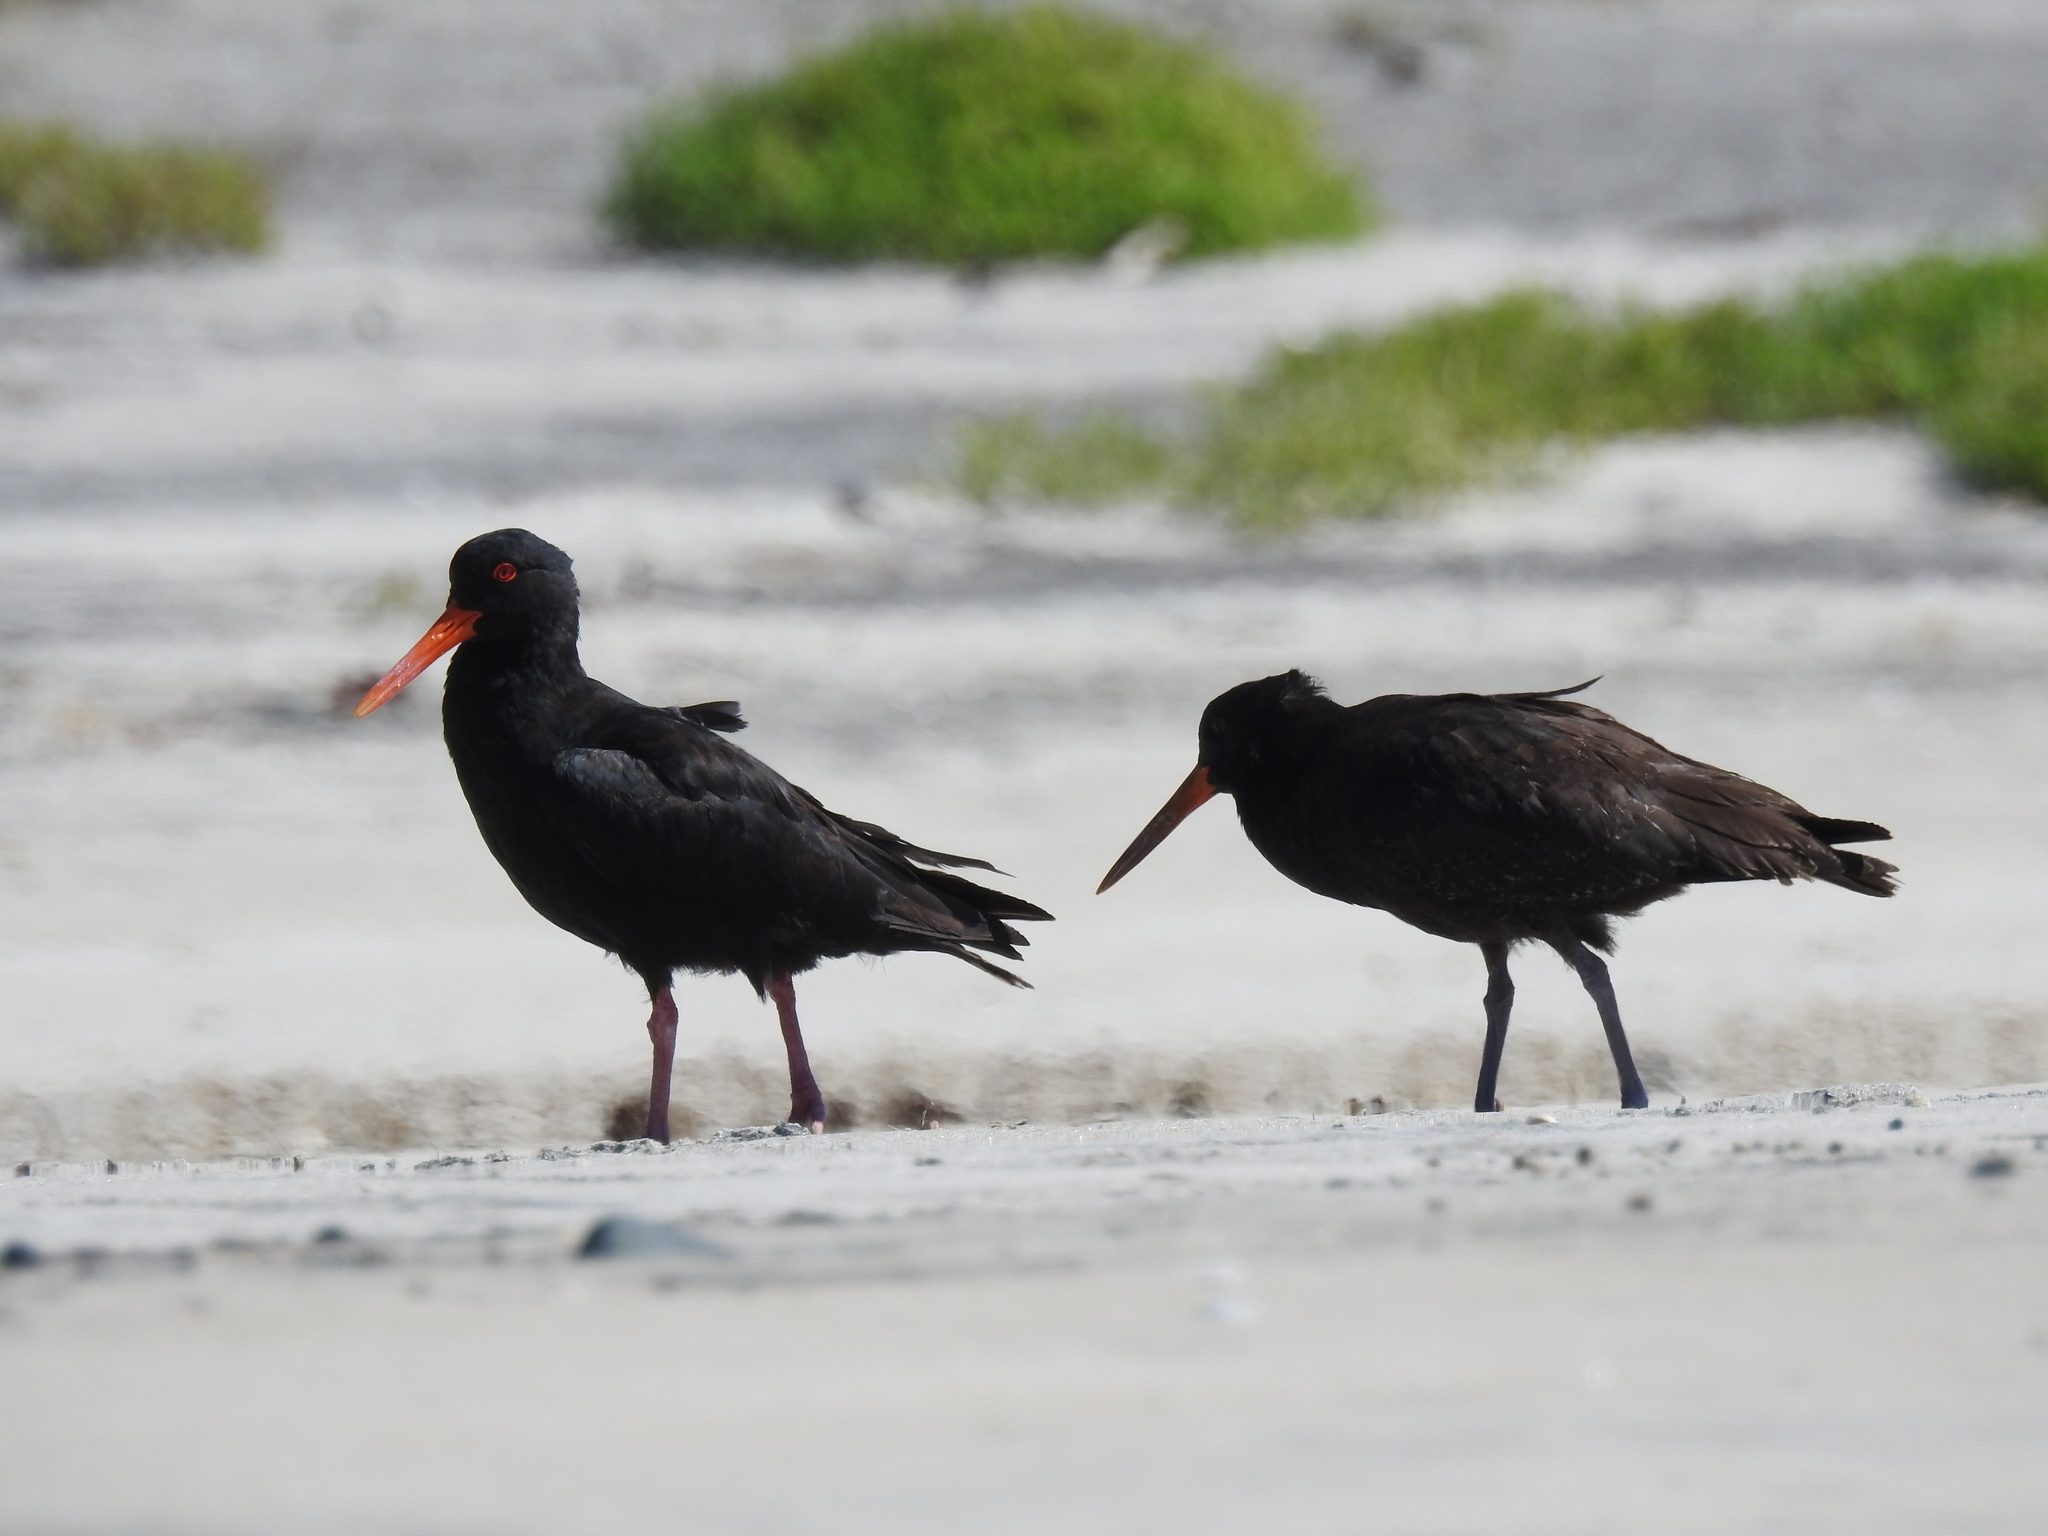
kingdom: Animalia
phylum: Chordata
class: Aves
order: Charadriiformes
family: Haematopodidae
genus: Haematopus
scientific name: Haematopus unicolor
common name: Variable oystercatcher
